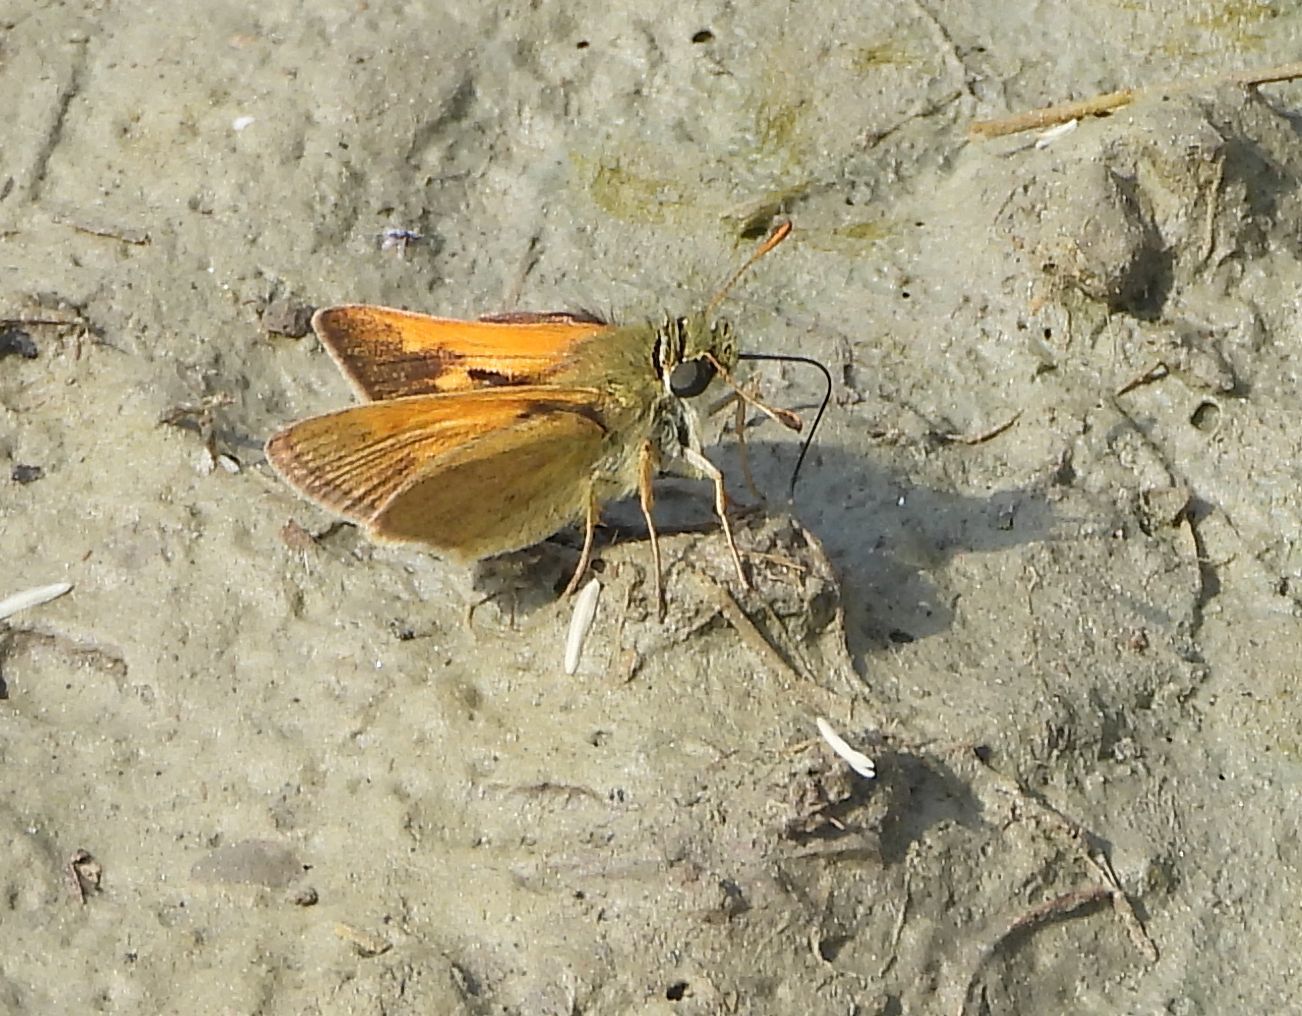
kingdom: Animalia
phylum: Arthropoda
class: Insecta
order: Lepidoptera
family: Hesperiidae
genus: Polites
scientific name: Polites themistocles
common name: Tawny-edged skipper
